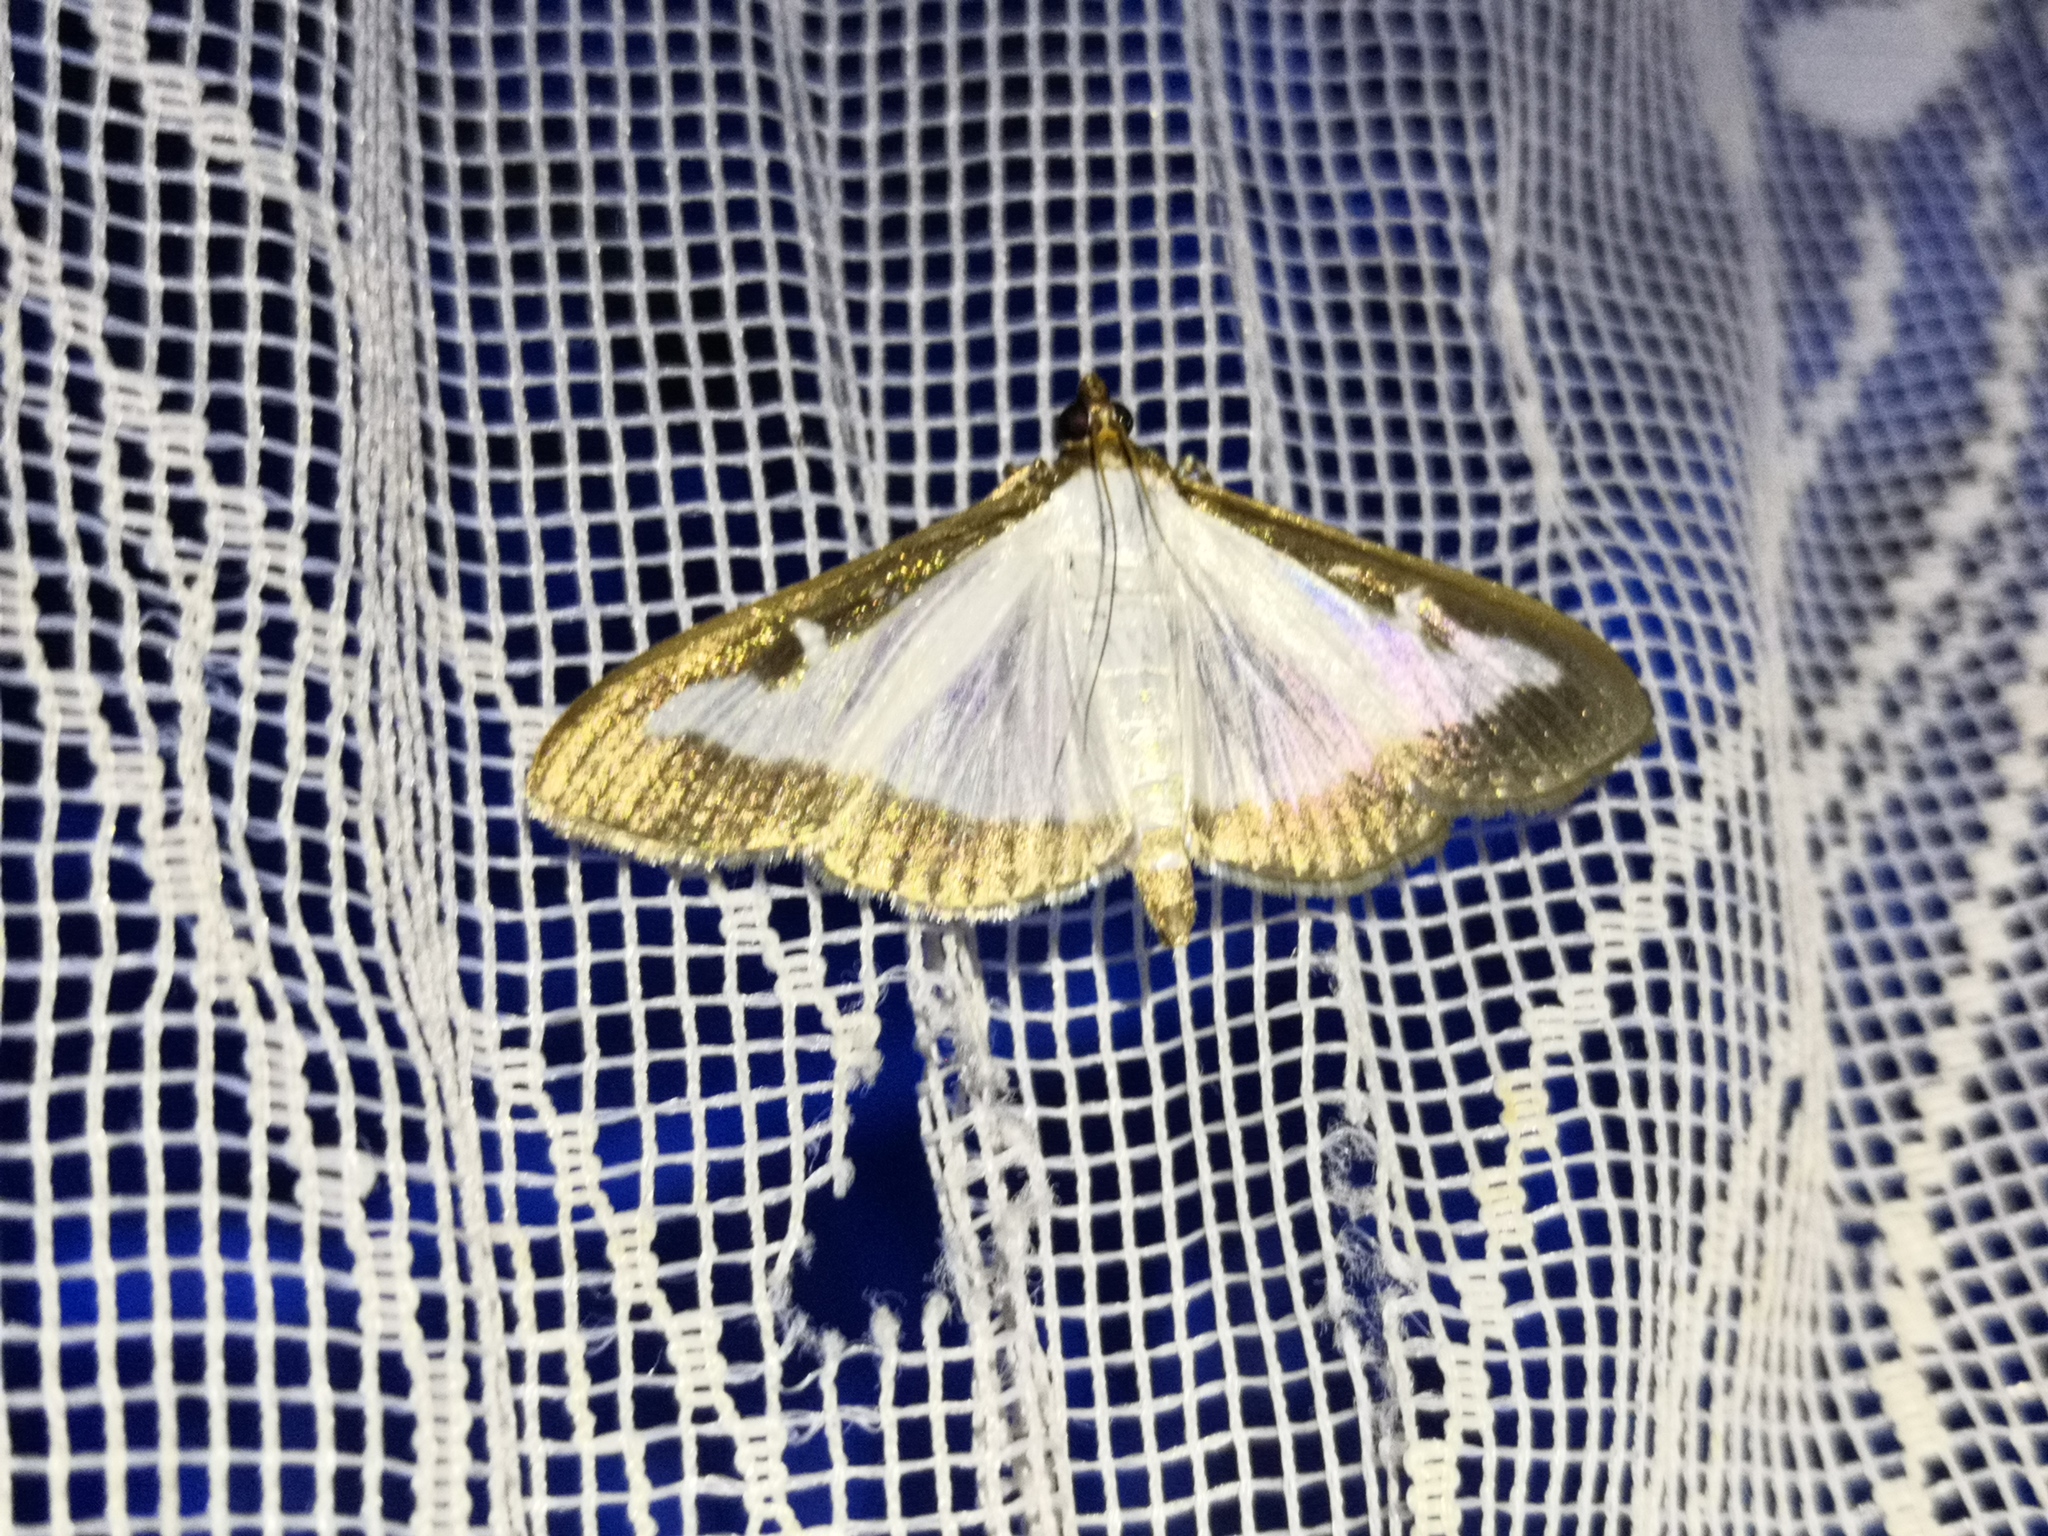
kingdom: Animalia
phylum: Arthropoda
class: Insecta
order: Lepidoptera
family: Crambidae
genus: Cydalima
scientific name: Cydalima perspectalis
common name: Box tree moth
